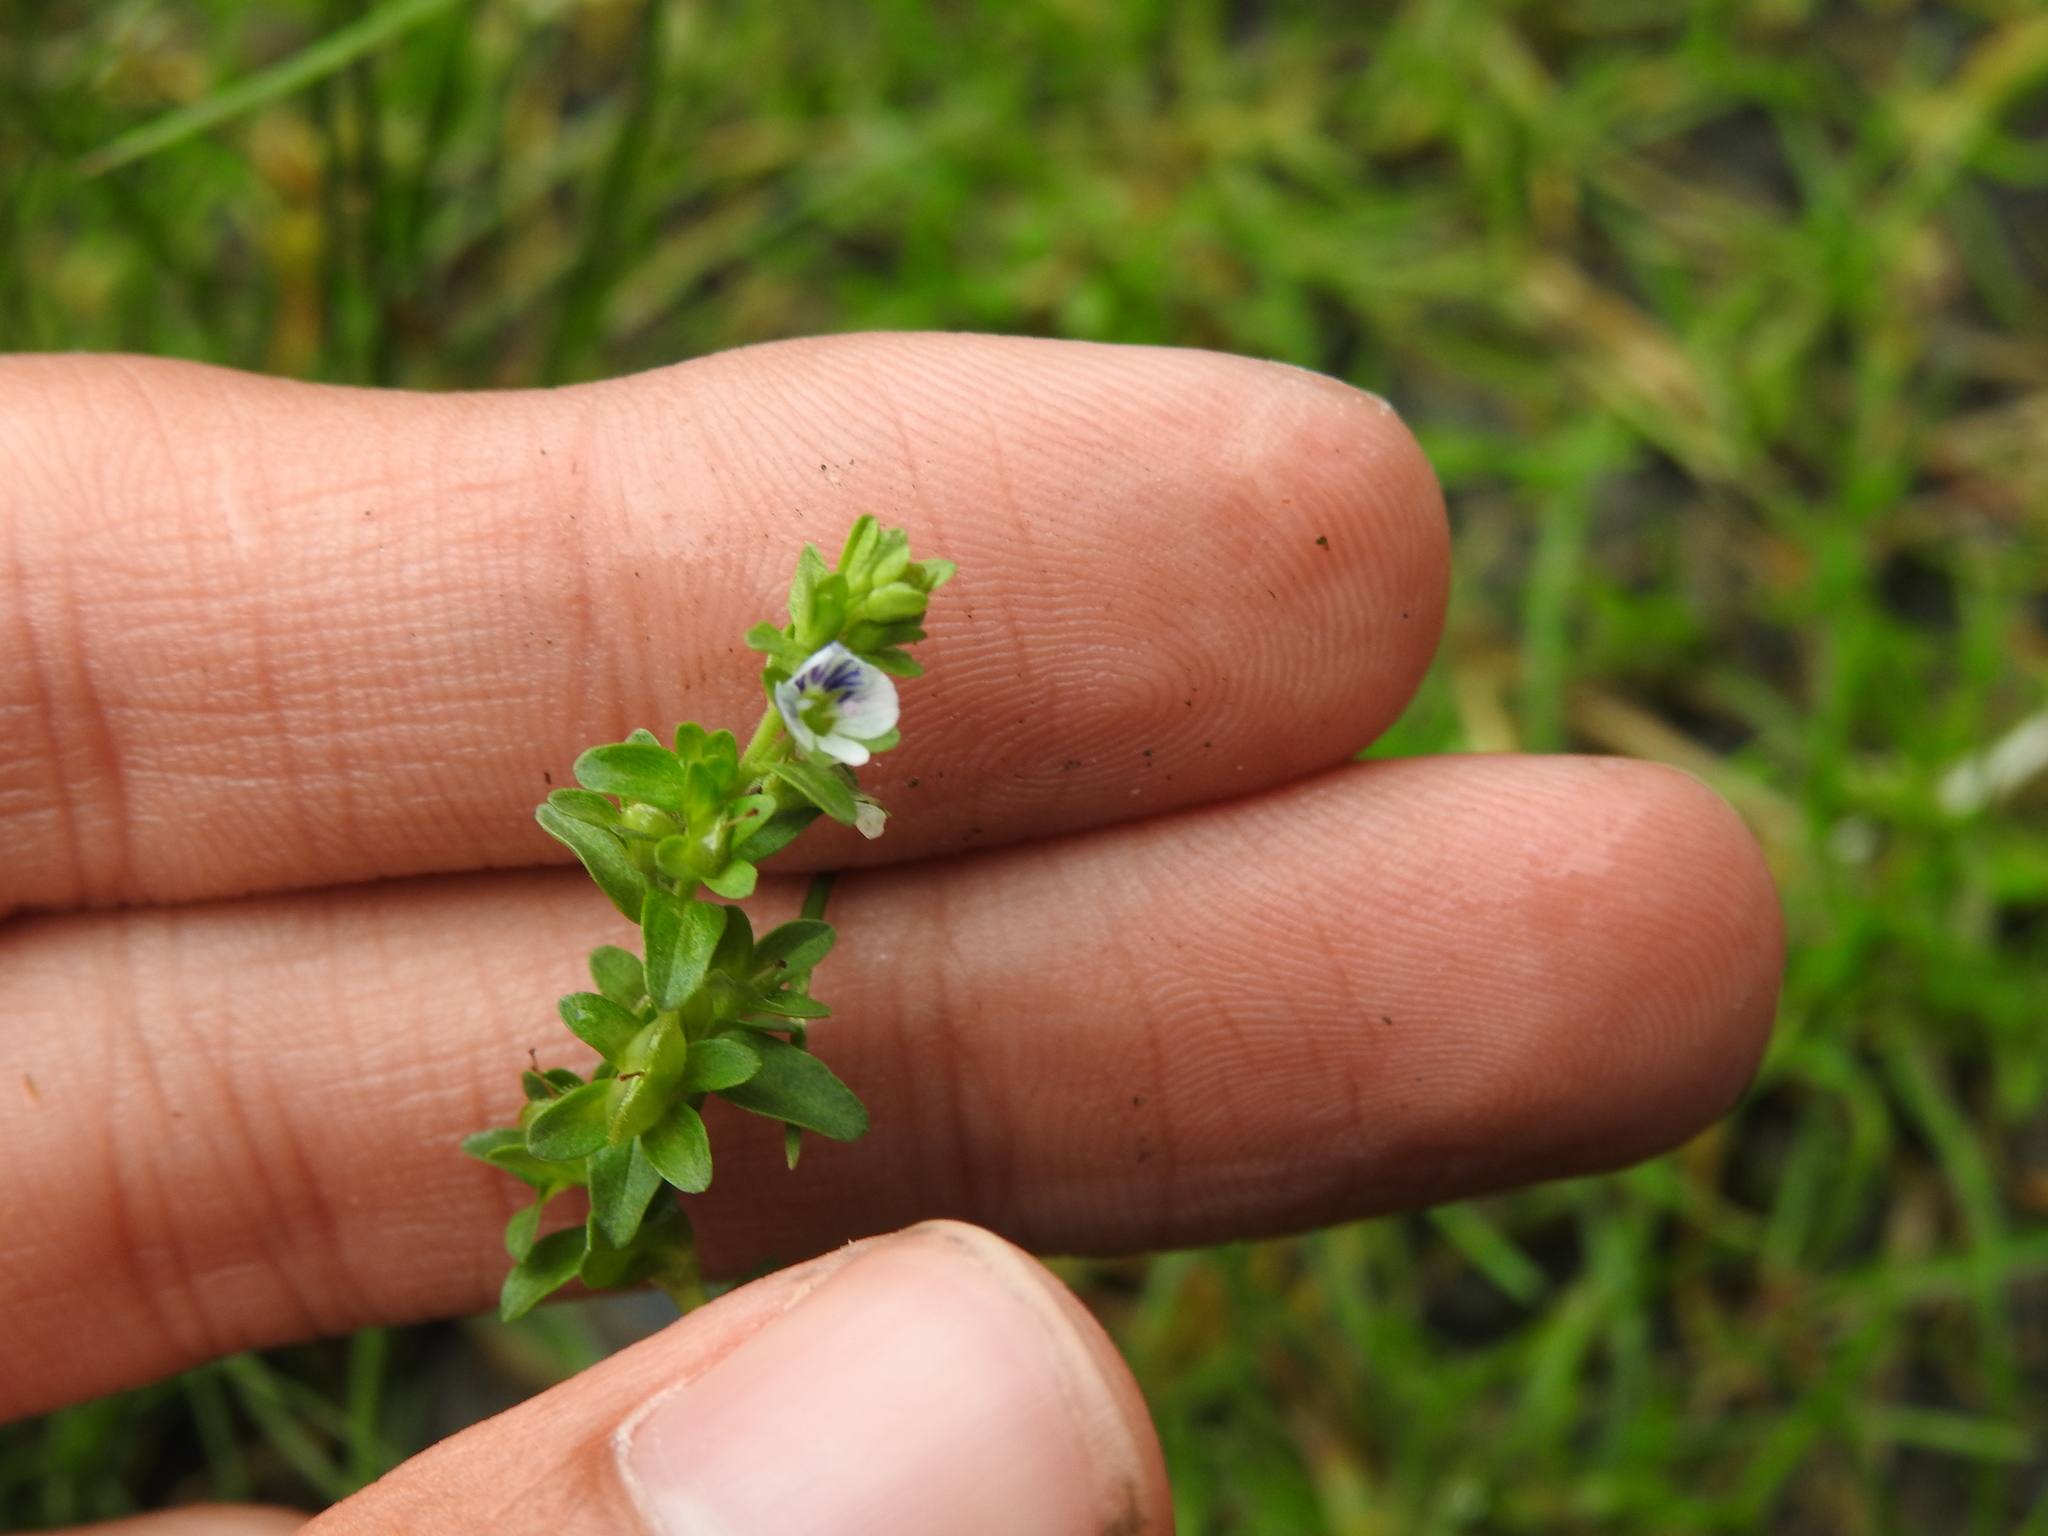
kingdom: Plantae
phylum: Tracheophyta
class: Magnoliopsida
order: Lamiales
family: Plantaginaceae
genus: Veronica
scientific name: Veronica serpyllifolia
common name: Thyme-leaved speedwell
